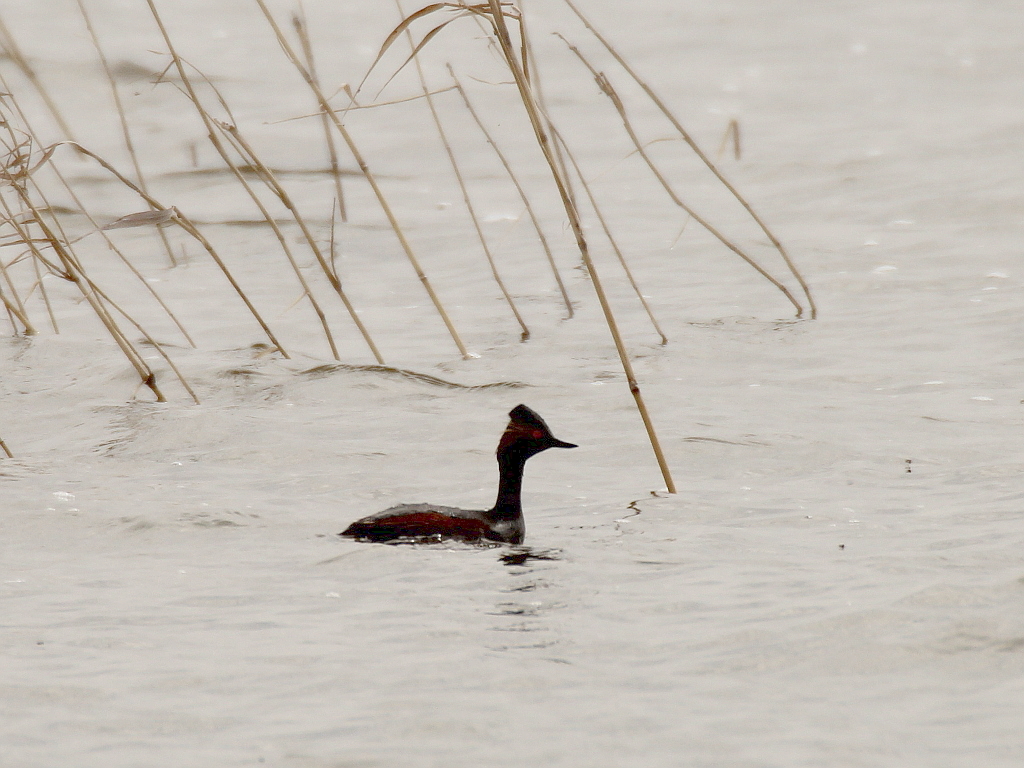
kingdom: Animalia
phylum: Chordata
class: Aves
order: Podicipediformes
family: Podicipedidae
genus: Podiceps
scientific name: Podiceps nigricollis
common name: Black-necked grebe
